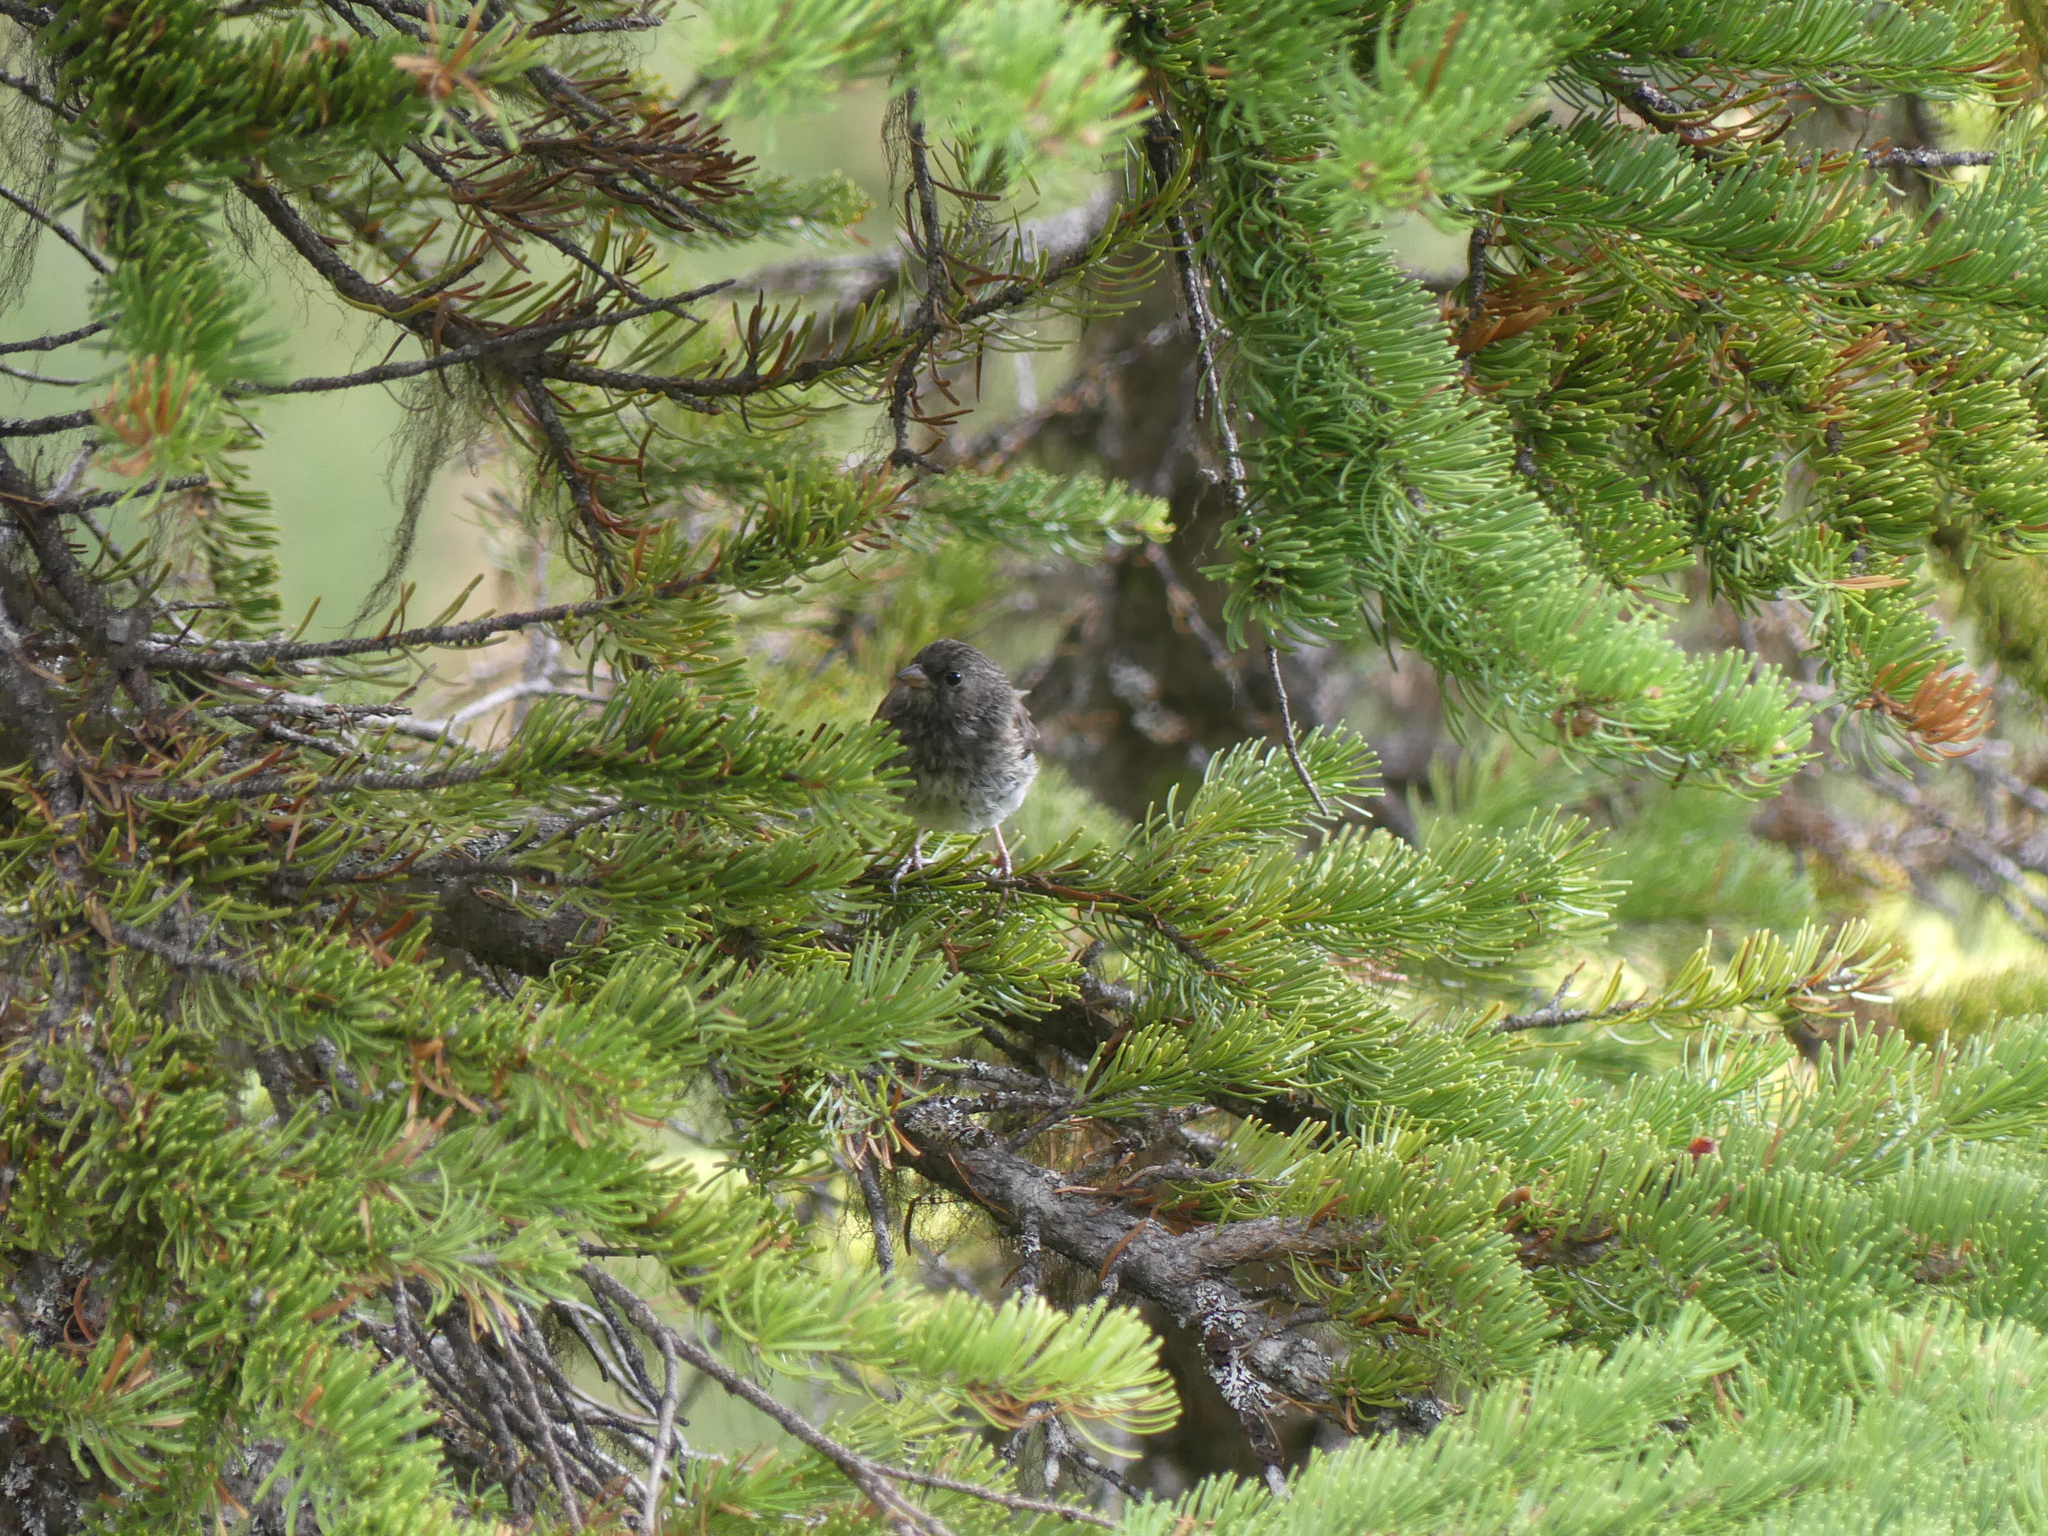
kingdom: Animalia
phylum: Chordata
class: Aves
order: Passeriformes
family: Passerellidae
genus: Junco
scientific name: Junco hyemalis
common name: Dark-eyed junco
